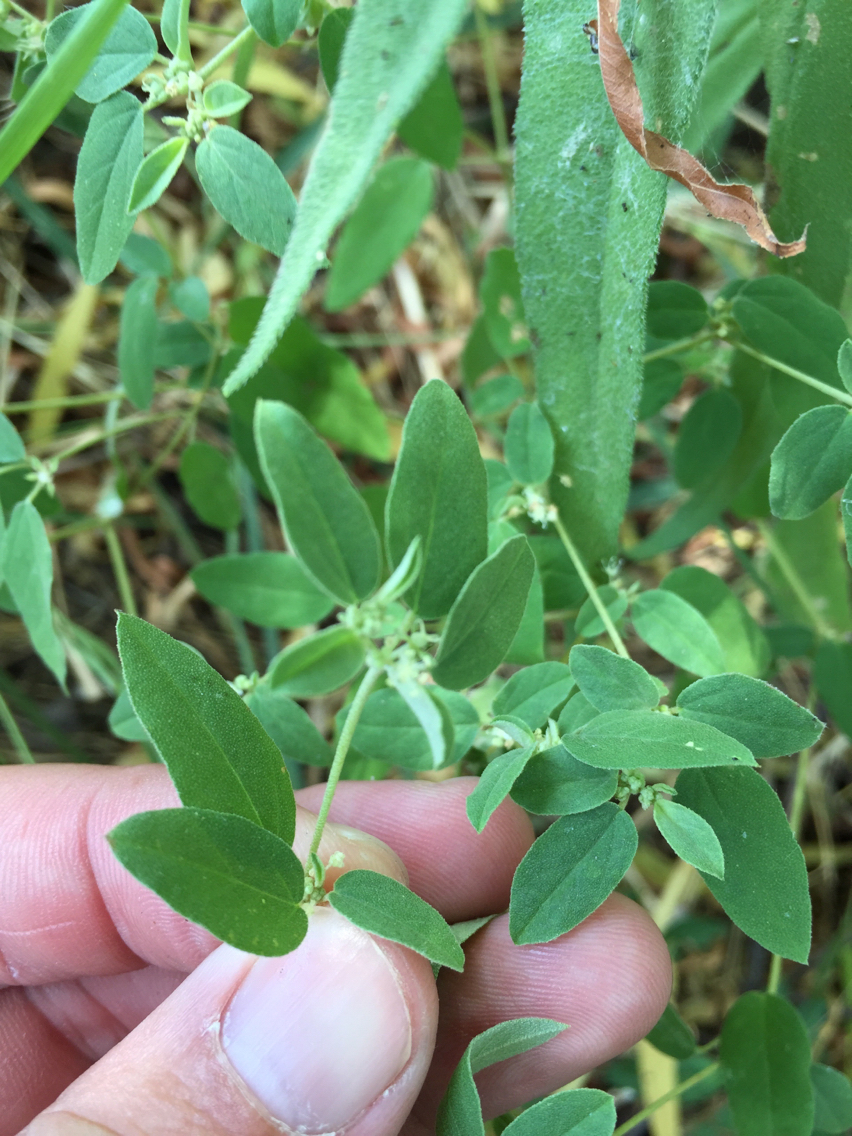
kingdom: Plantae
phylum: Tracheophyta
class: Magnoliopsida
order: Malpighiales
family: Euphorbiaceae
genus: Croton
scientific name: Croton monanthogynus
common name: One-seed croton
